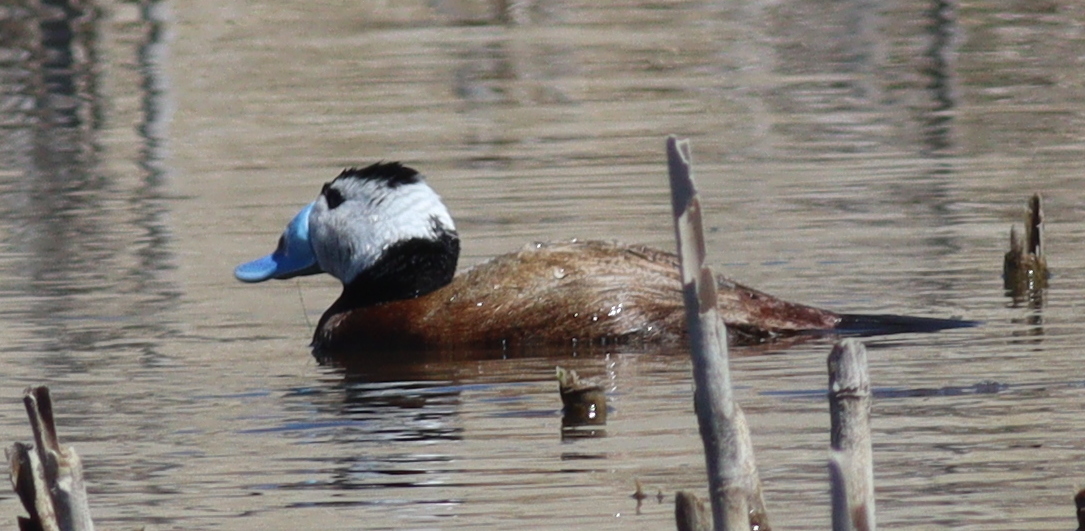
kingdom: Animalia
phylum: Chordata
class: Aves
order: Anseriformes
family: Anatidae
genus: Oxyura
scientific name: Oxyura leucocephala
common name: White-headed duck
